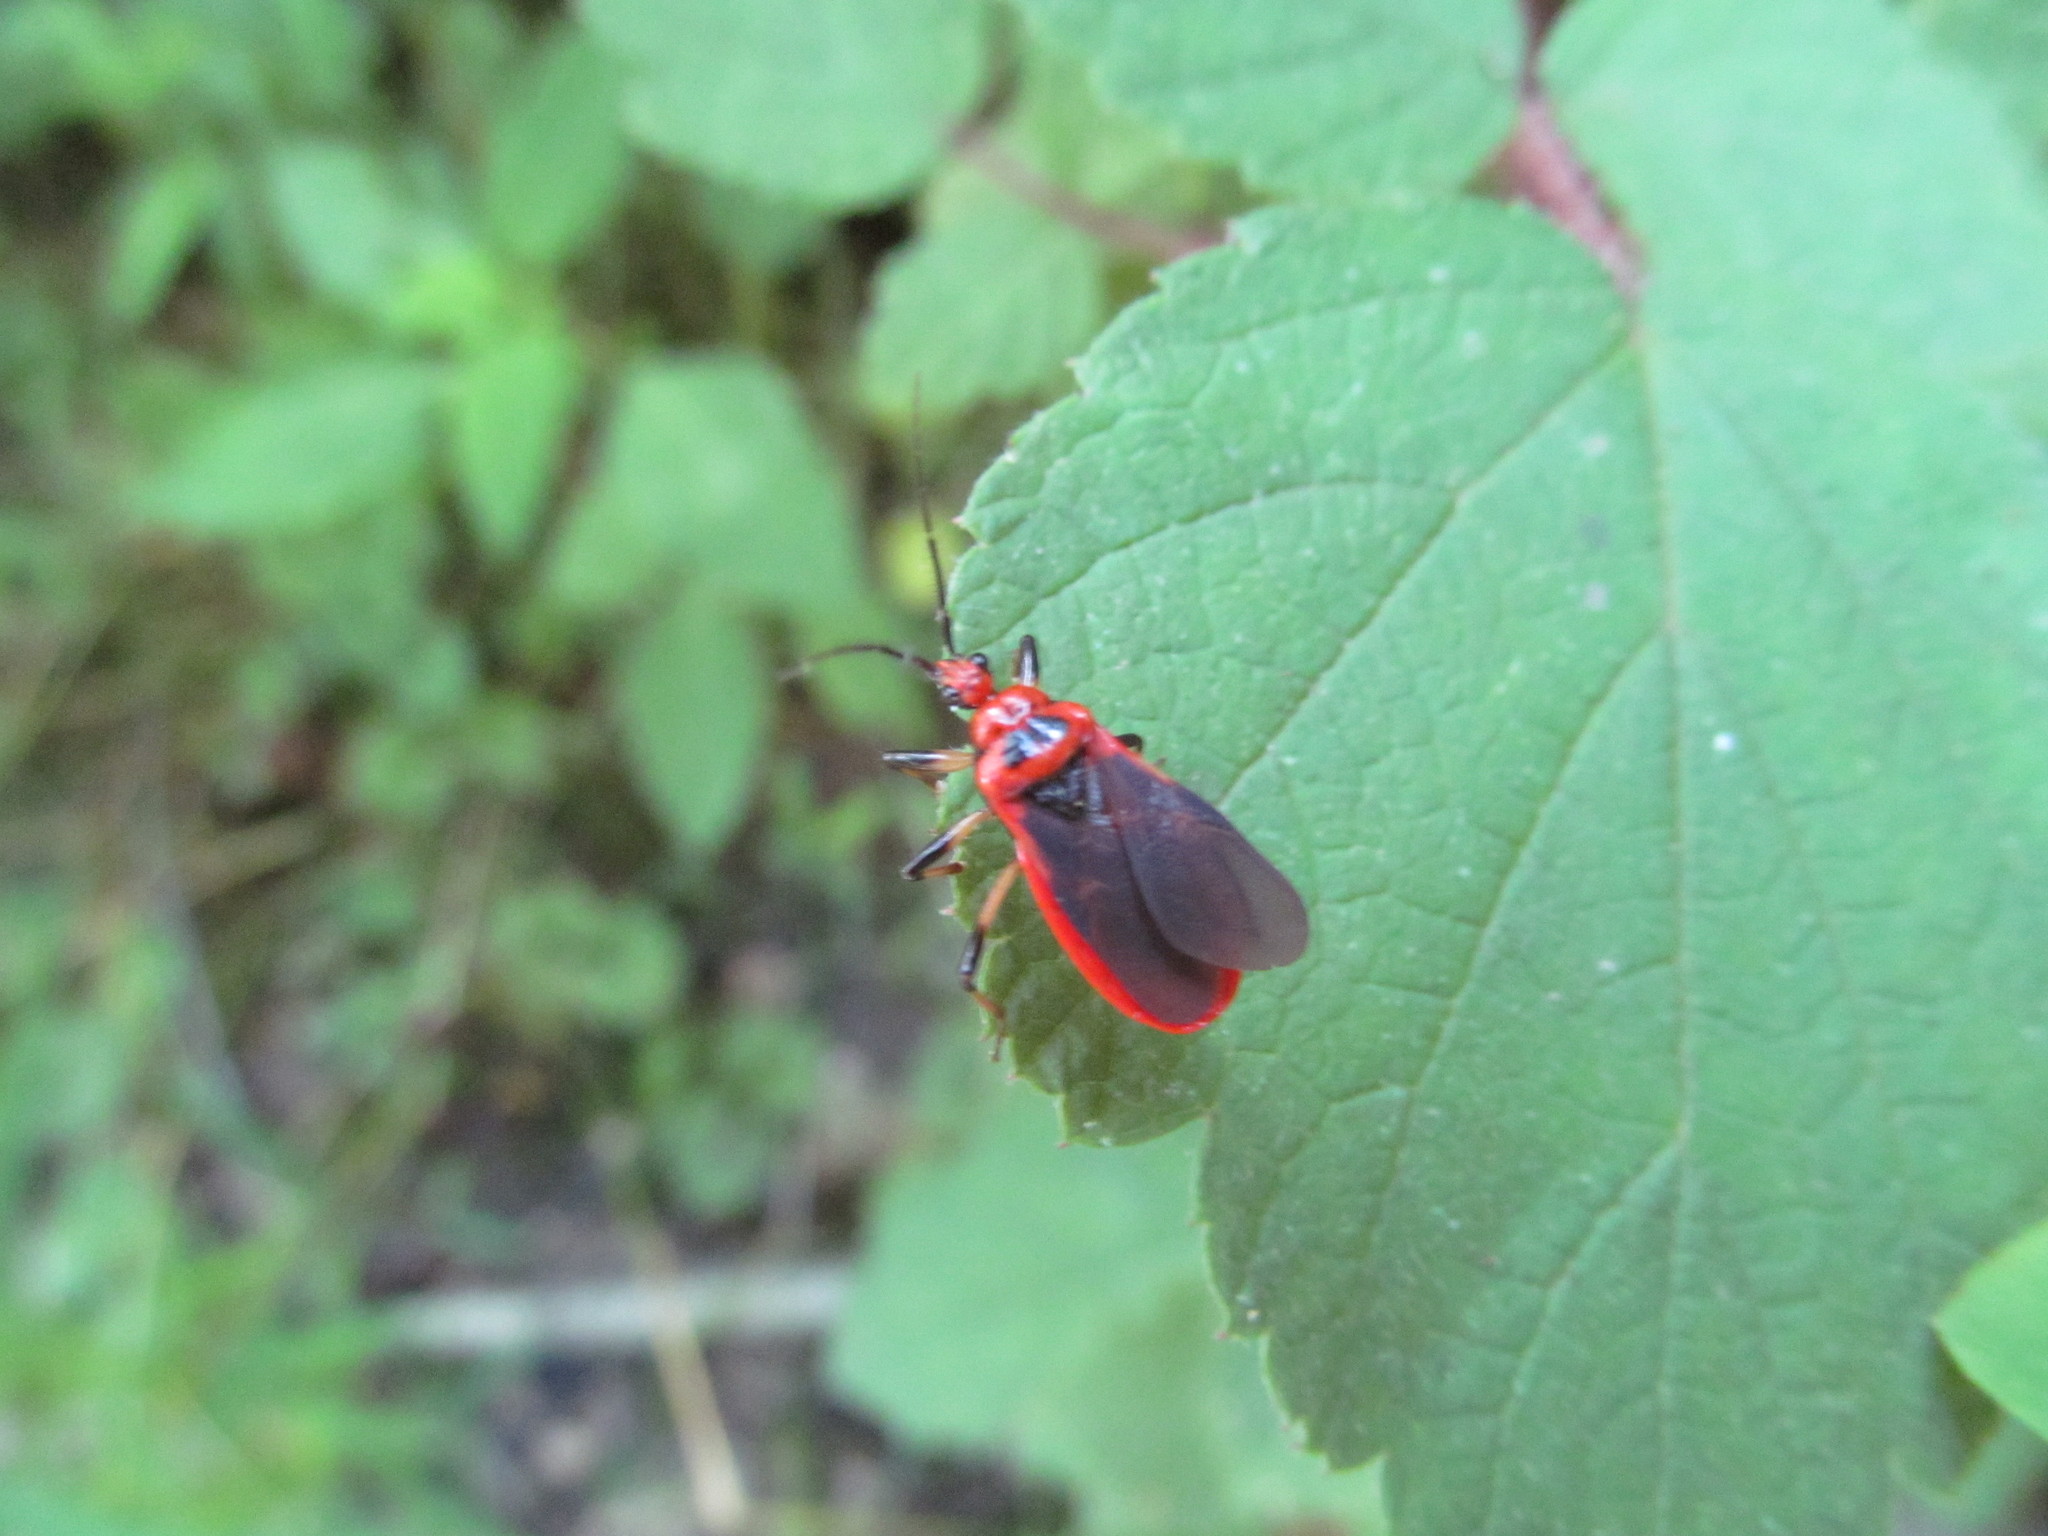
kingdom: Animalia
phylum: Arthropoda
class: Insecta
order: Hemiptera
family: Reduviidae
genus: Rhiginia
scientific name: Rhiginia cruciata
